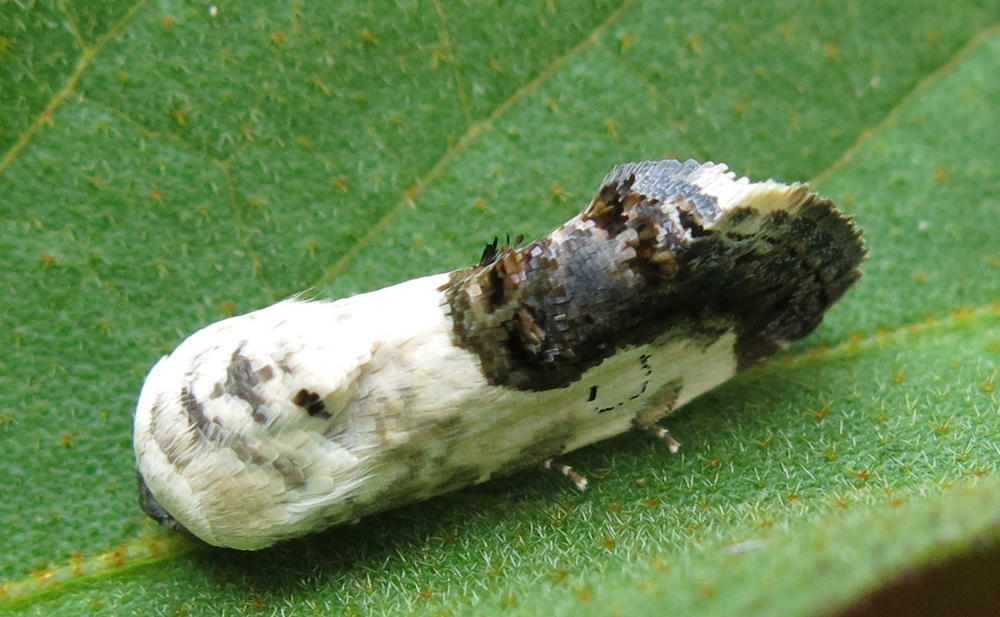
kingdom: Animalia
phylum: Arthropoda
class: Insecta
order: Lepidoptera
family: Noctuidae
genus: Acontia
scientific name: Acontia psaliphora
